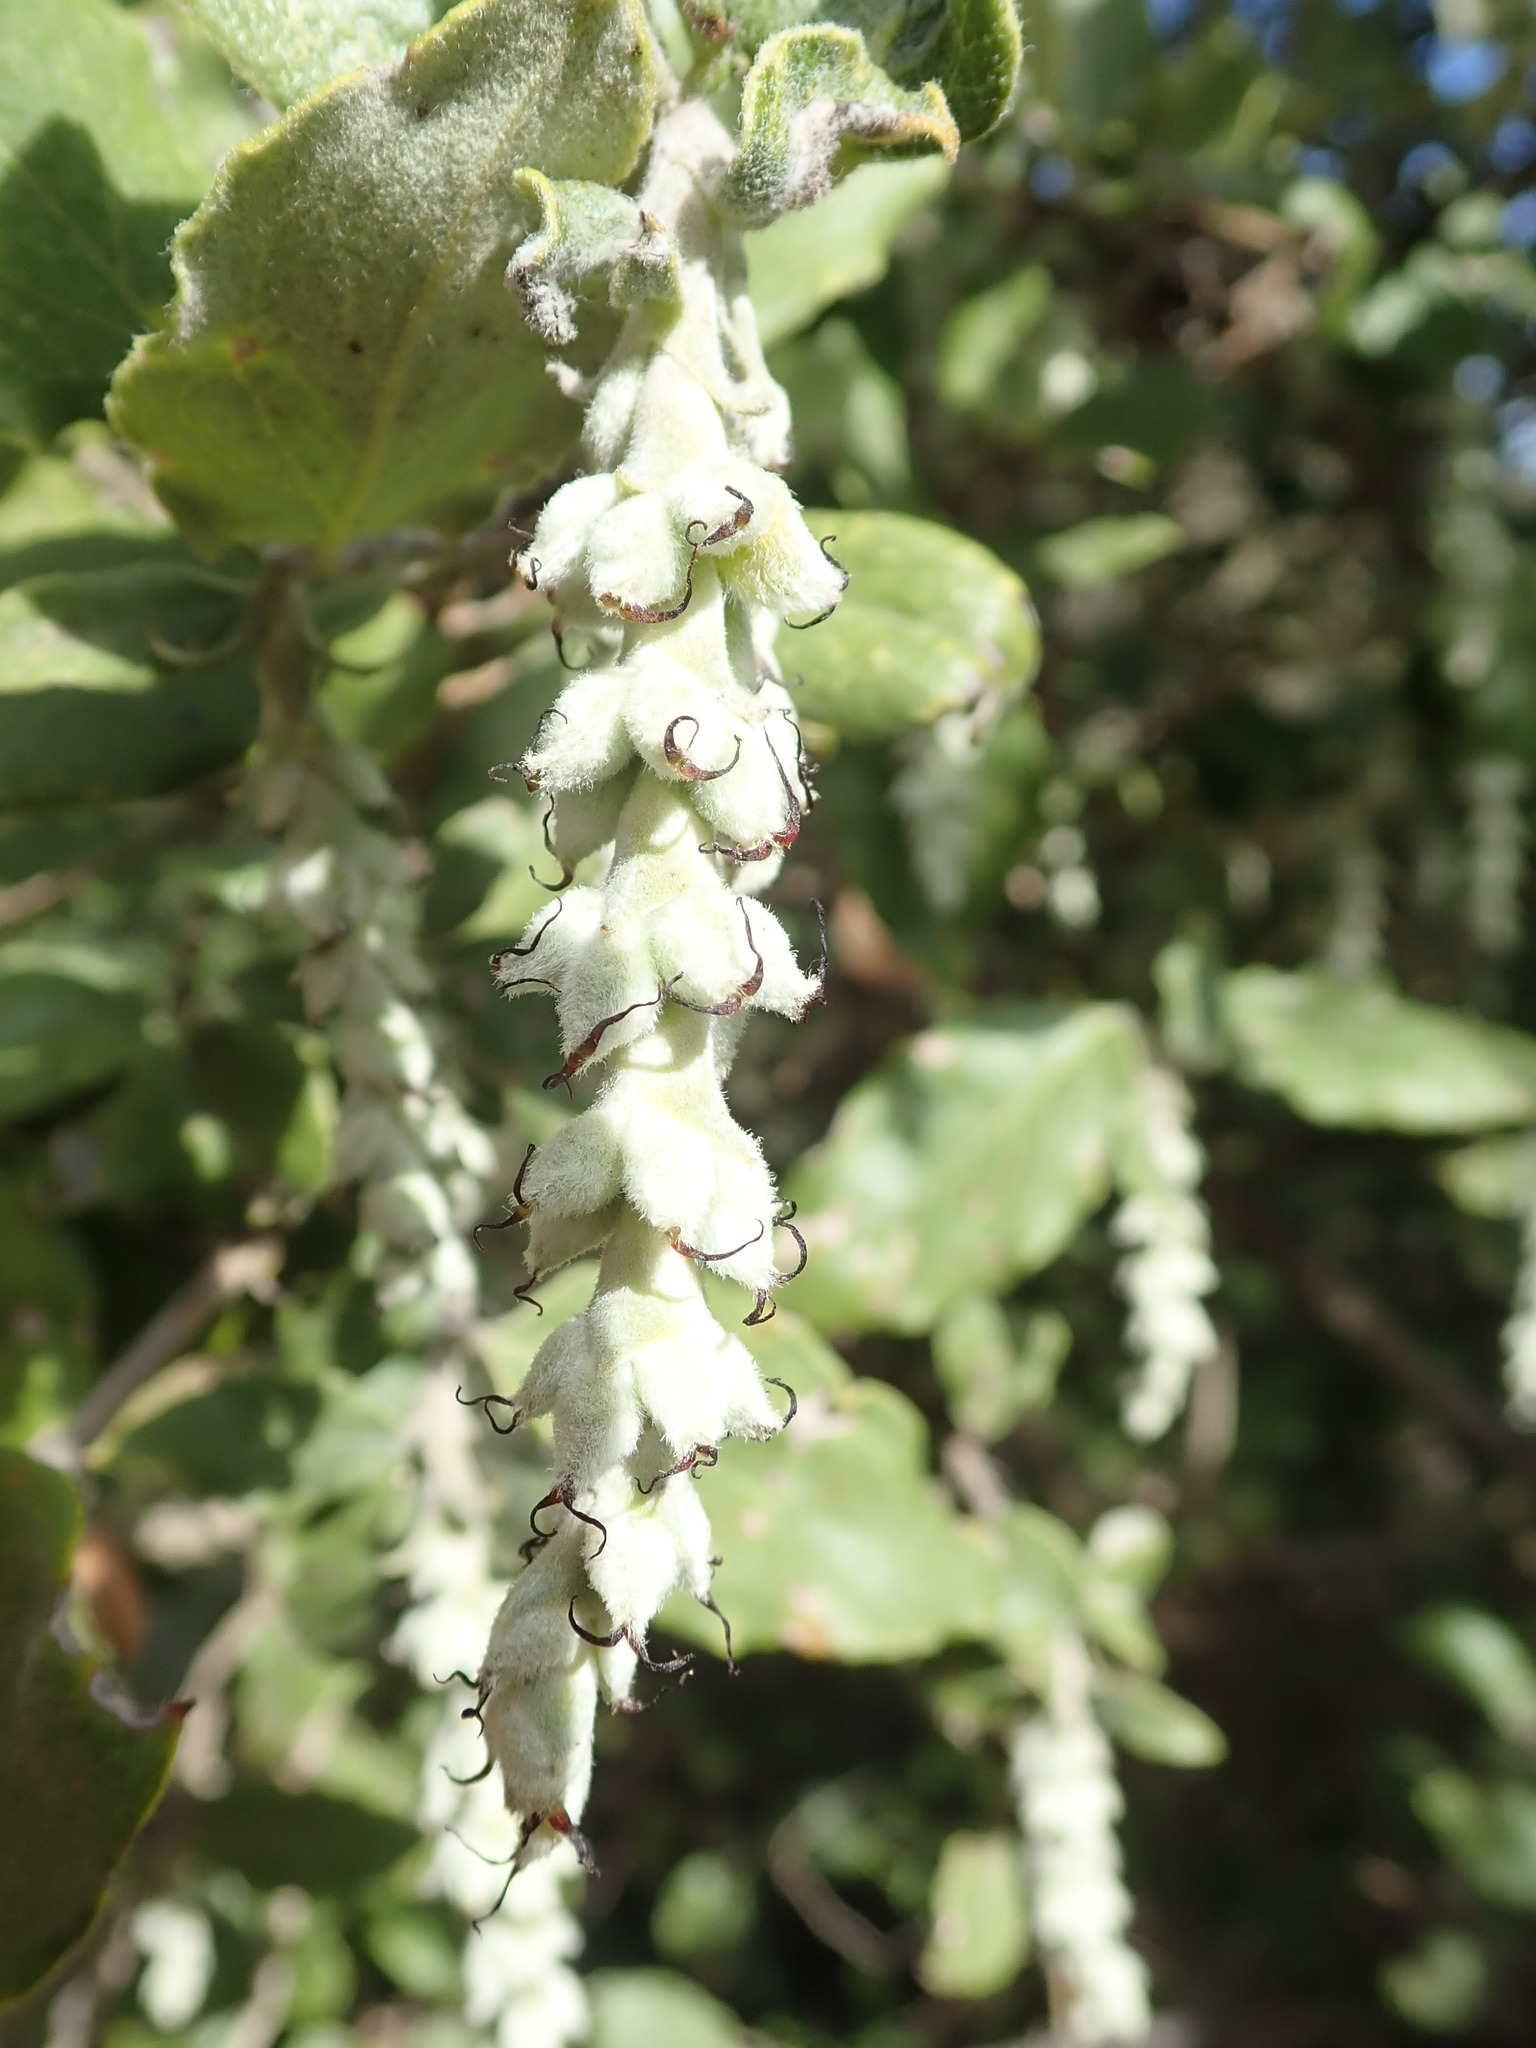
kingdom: Plantae
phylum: Tracheophyta
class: Magnoliopsida
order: Garryales
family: Garryaceae
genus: Garrya
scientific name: Garrya elliptica
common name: Silk-tassel
